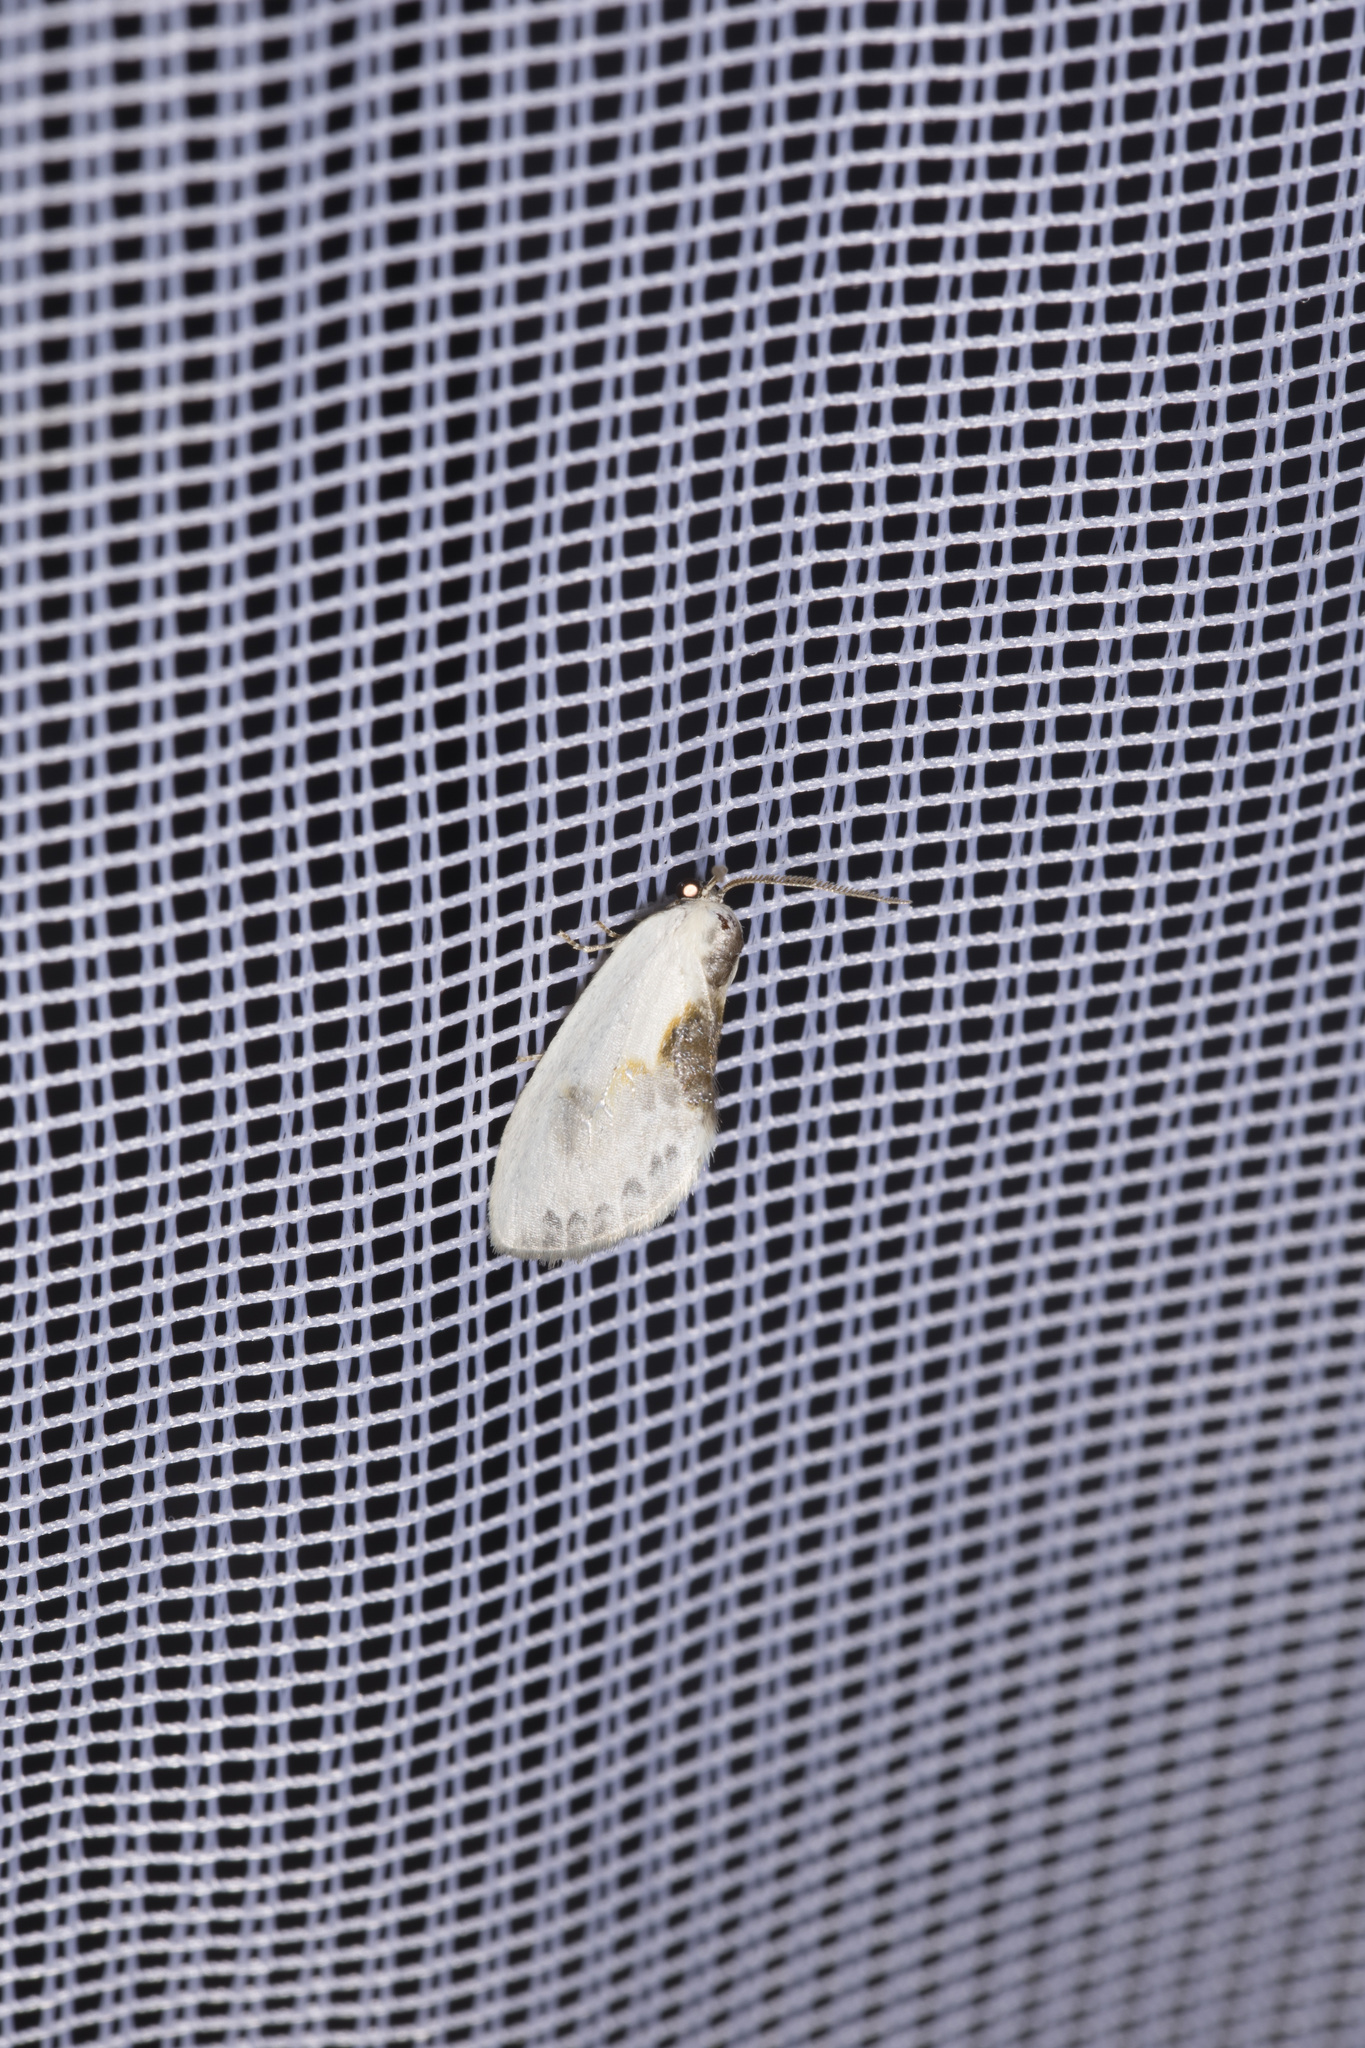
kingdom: Animalia
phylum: Arthropoda
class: Insecta
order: Lepidoptera
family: Drepanidae
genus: Cilix
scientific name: Cilix glaucata
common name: Chinese character
